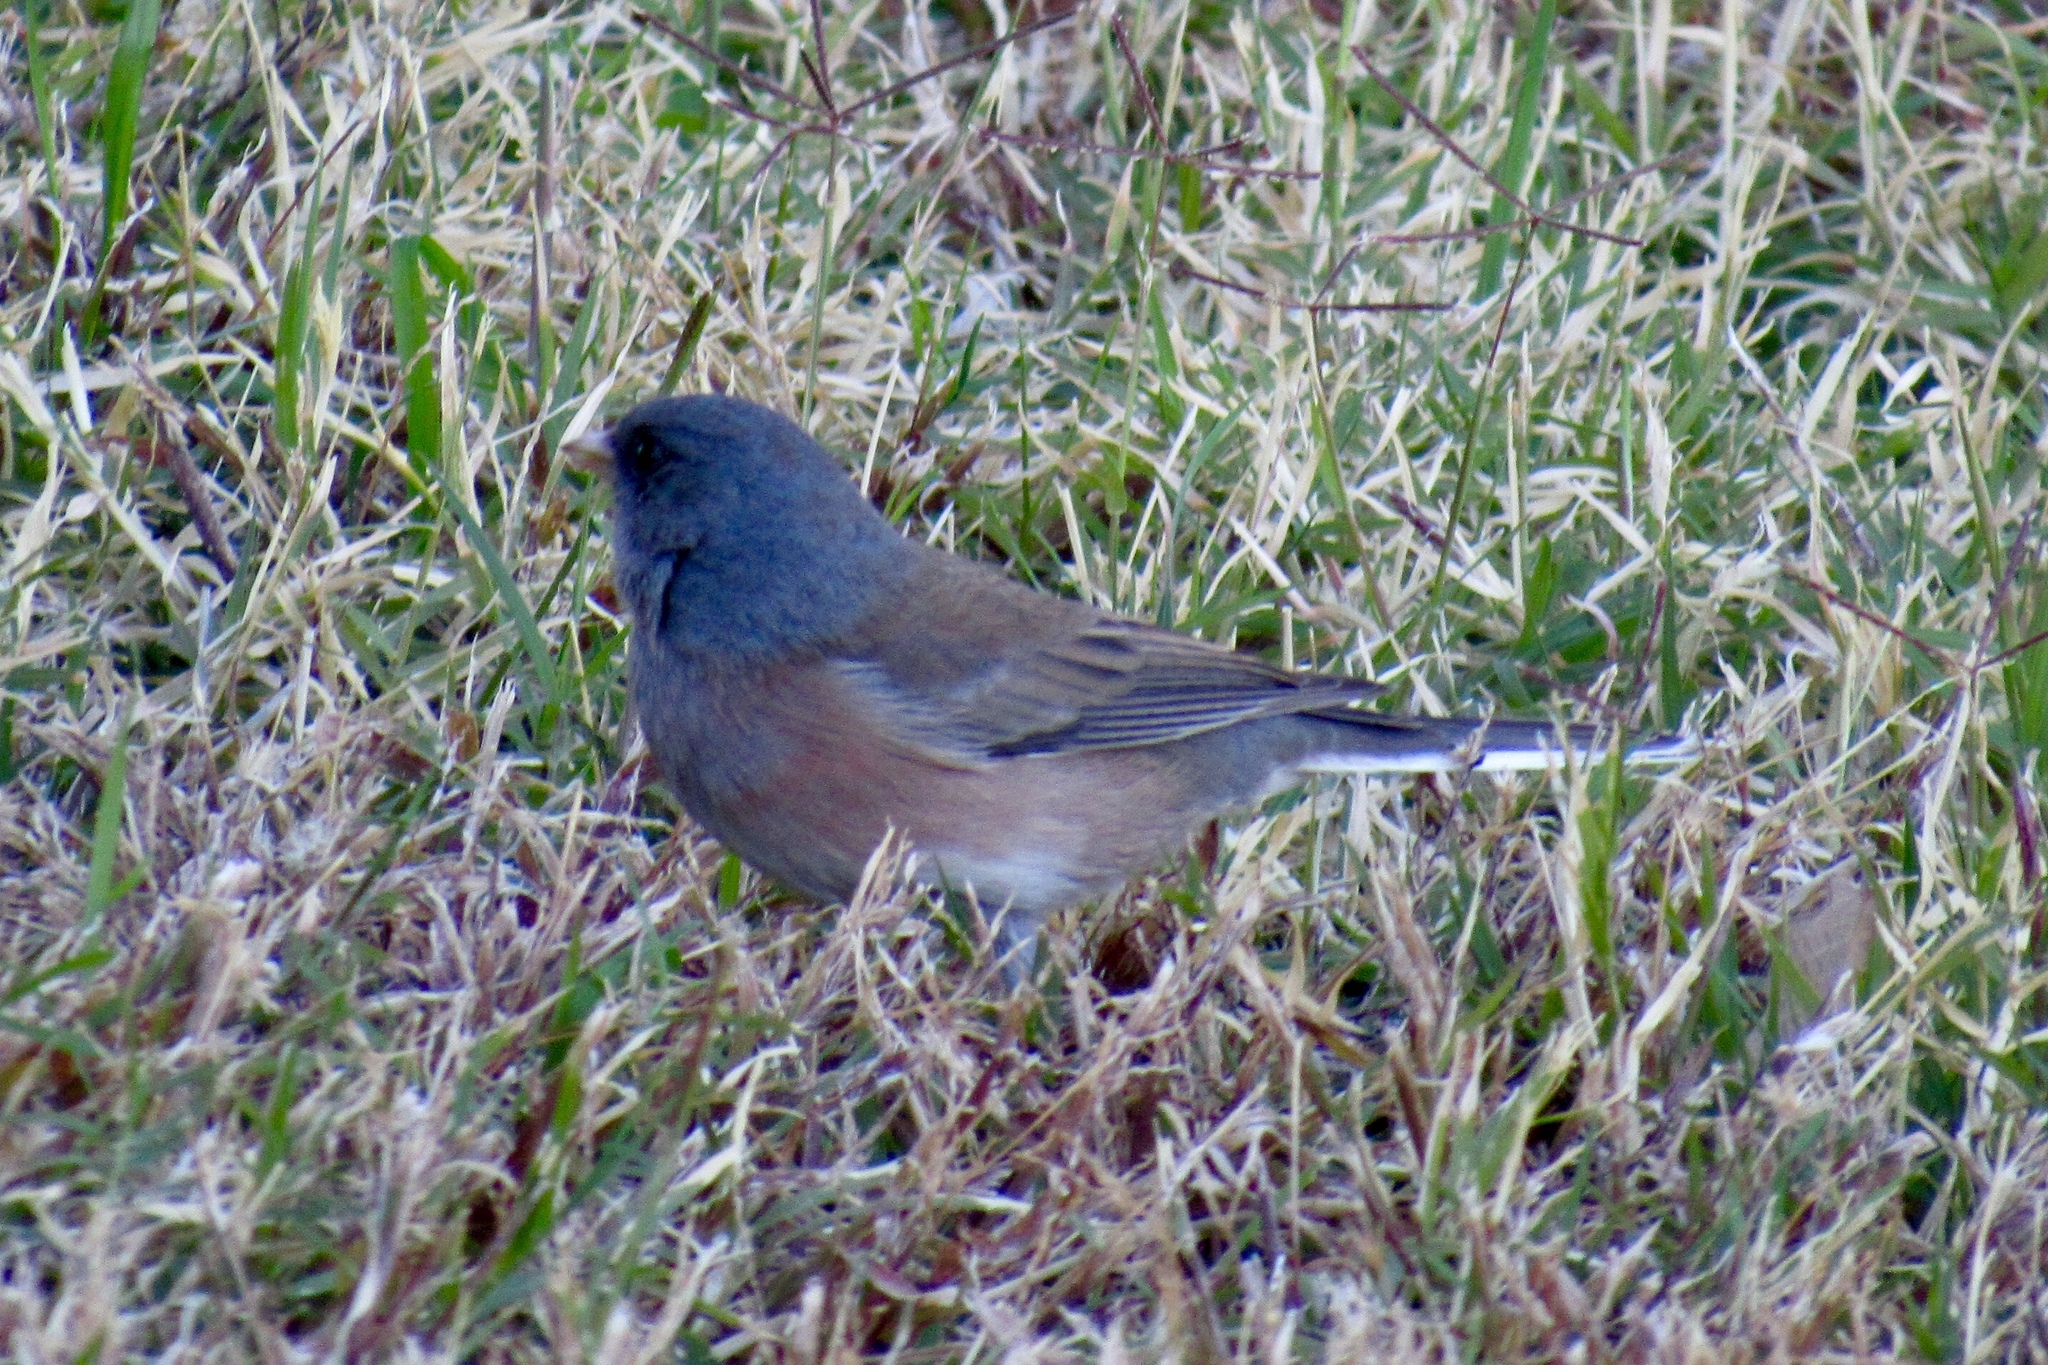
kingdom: Animalia
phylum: Chordata
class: Aves
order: Passeriformes
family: Passerellidae
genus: Junco
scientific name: Junco hyemalis
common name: Dark-eyed junco
